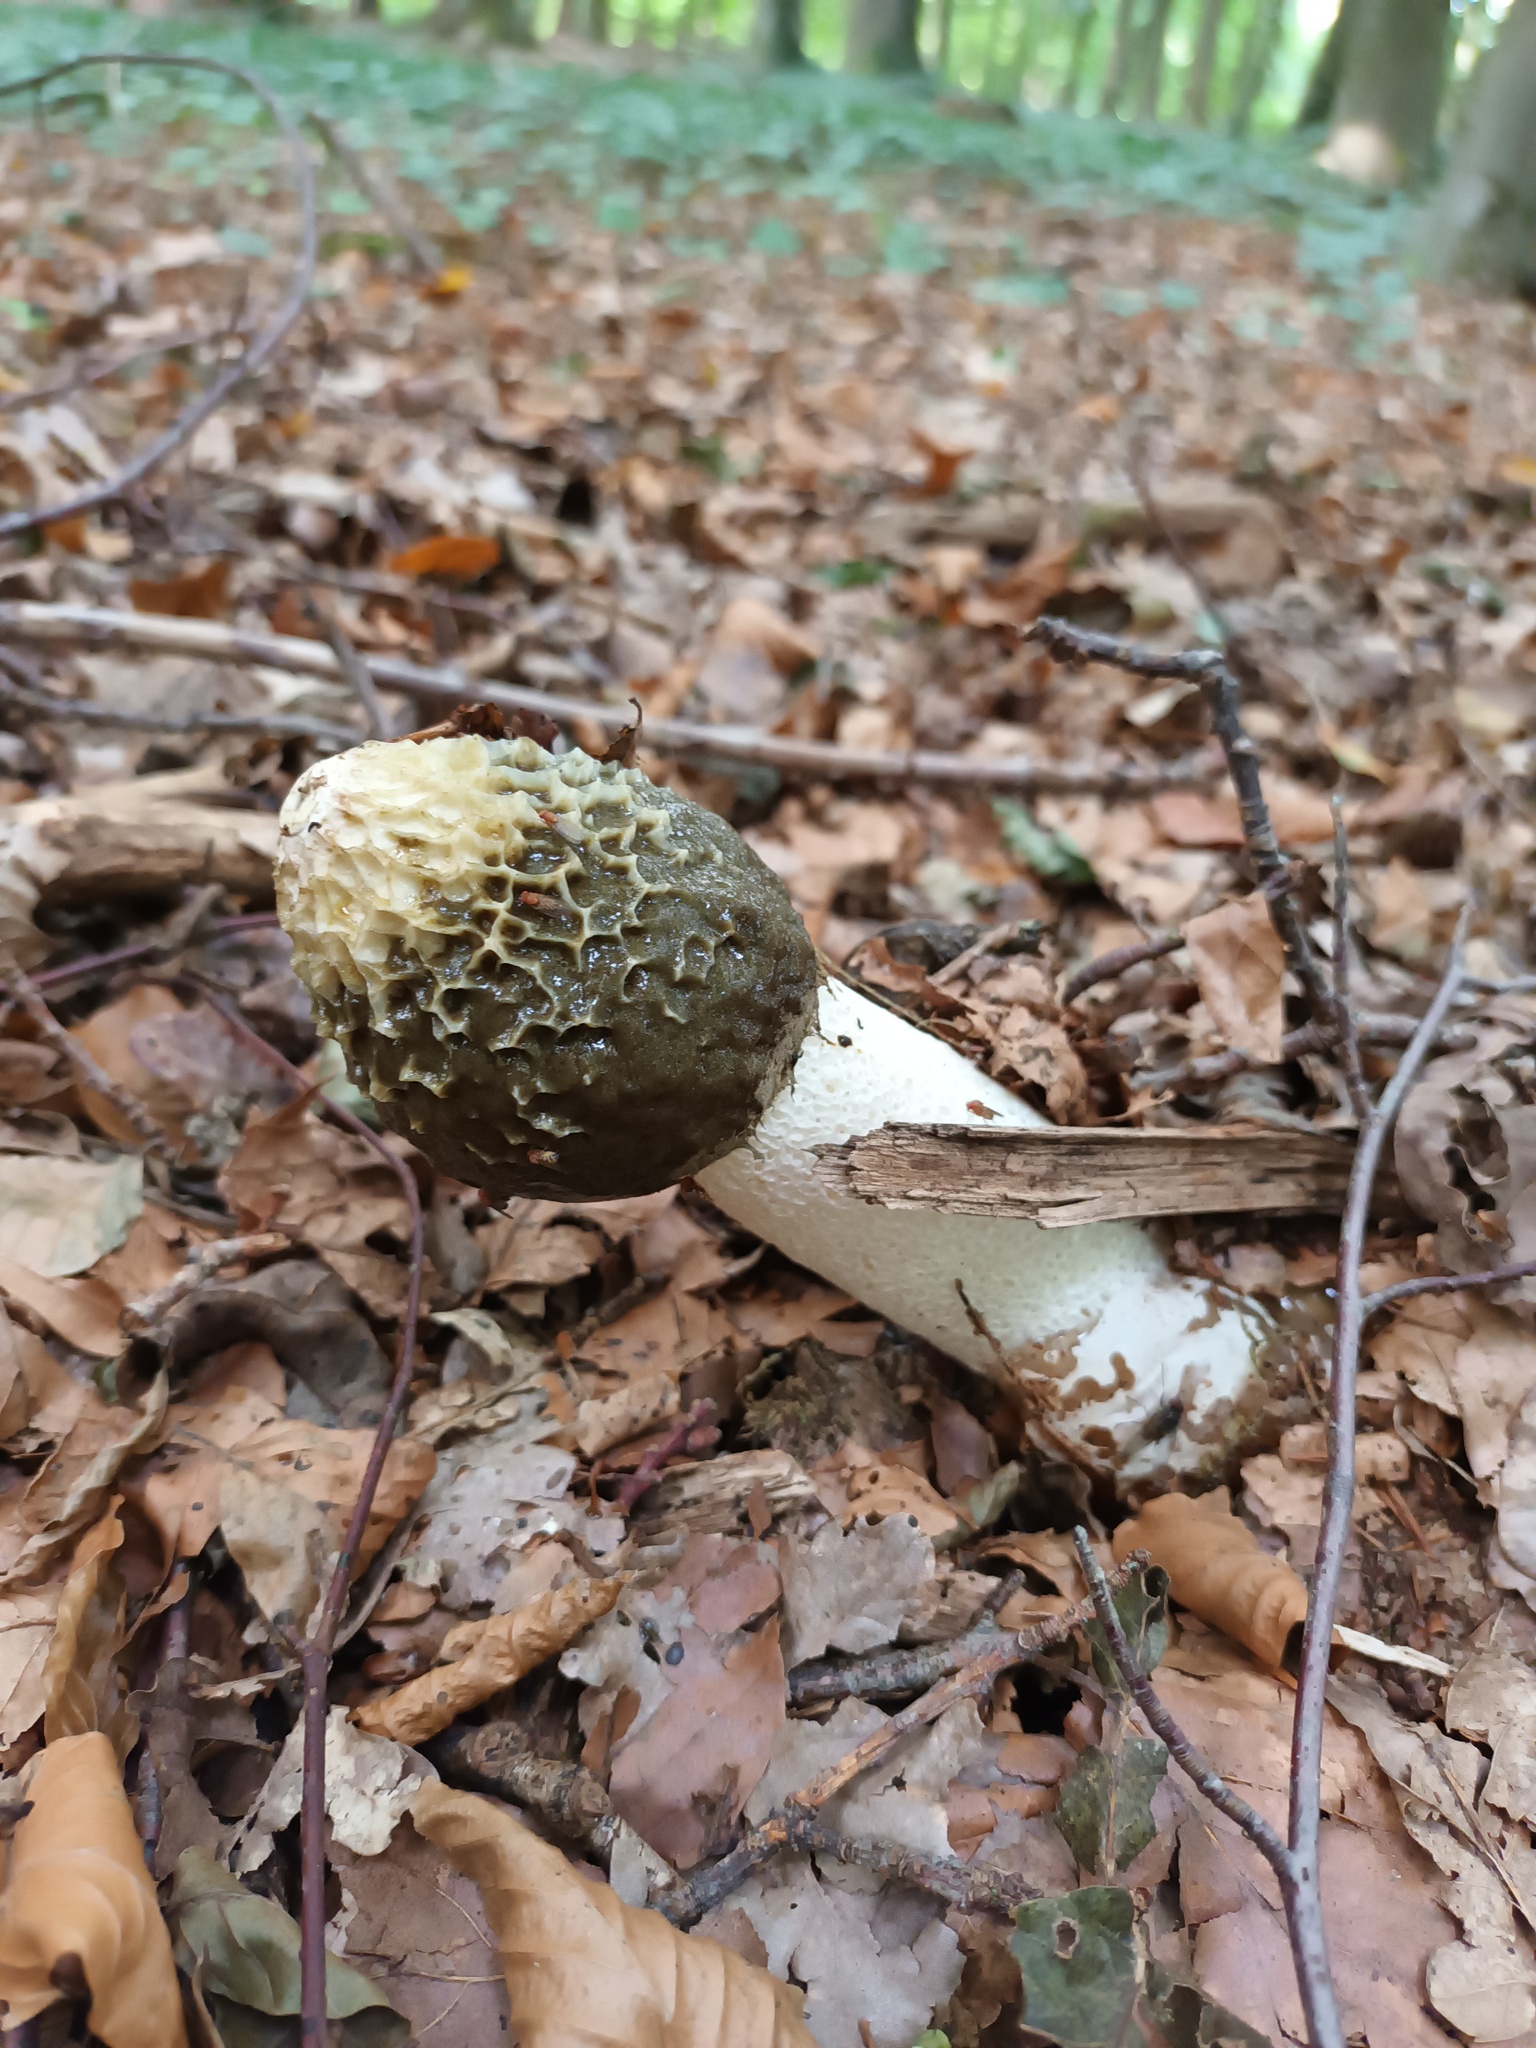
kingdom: Fungi
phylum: Basidiomycota
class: Agaricomycetes
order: Phallales
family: Phallaceae
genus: Phallus
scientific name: Phallus impudicus
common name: Common stinkhorn
